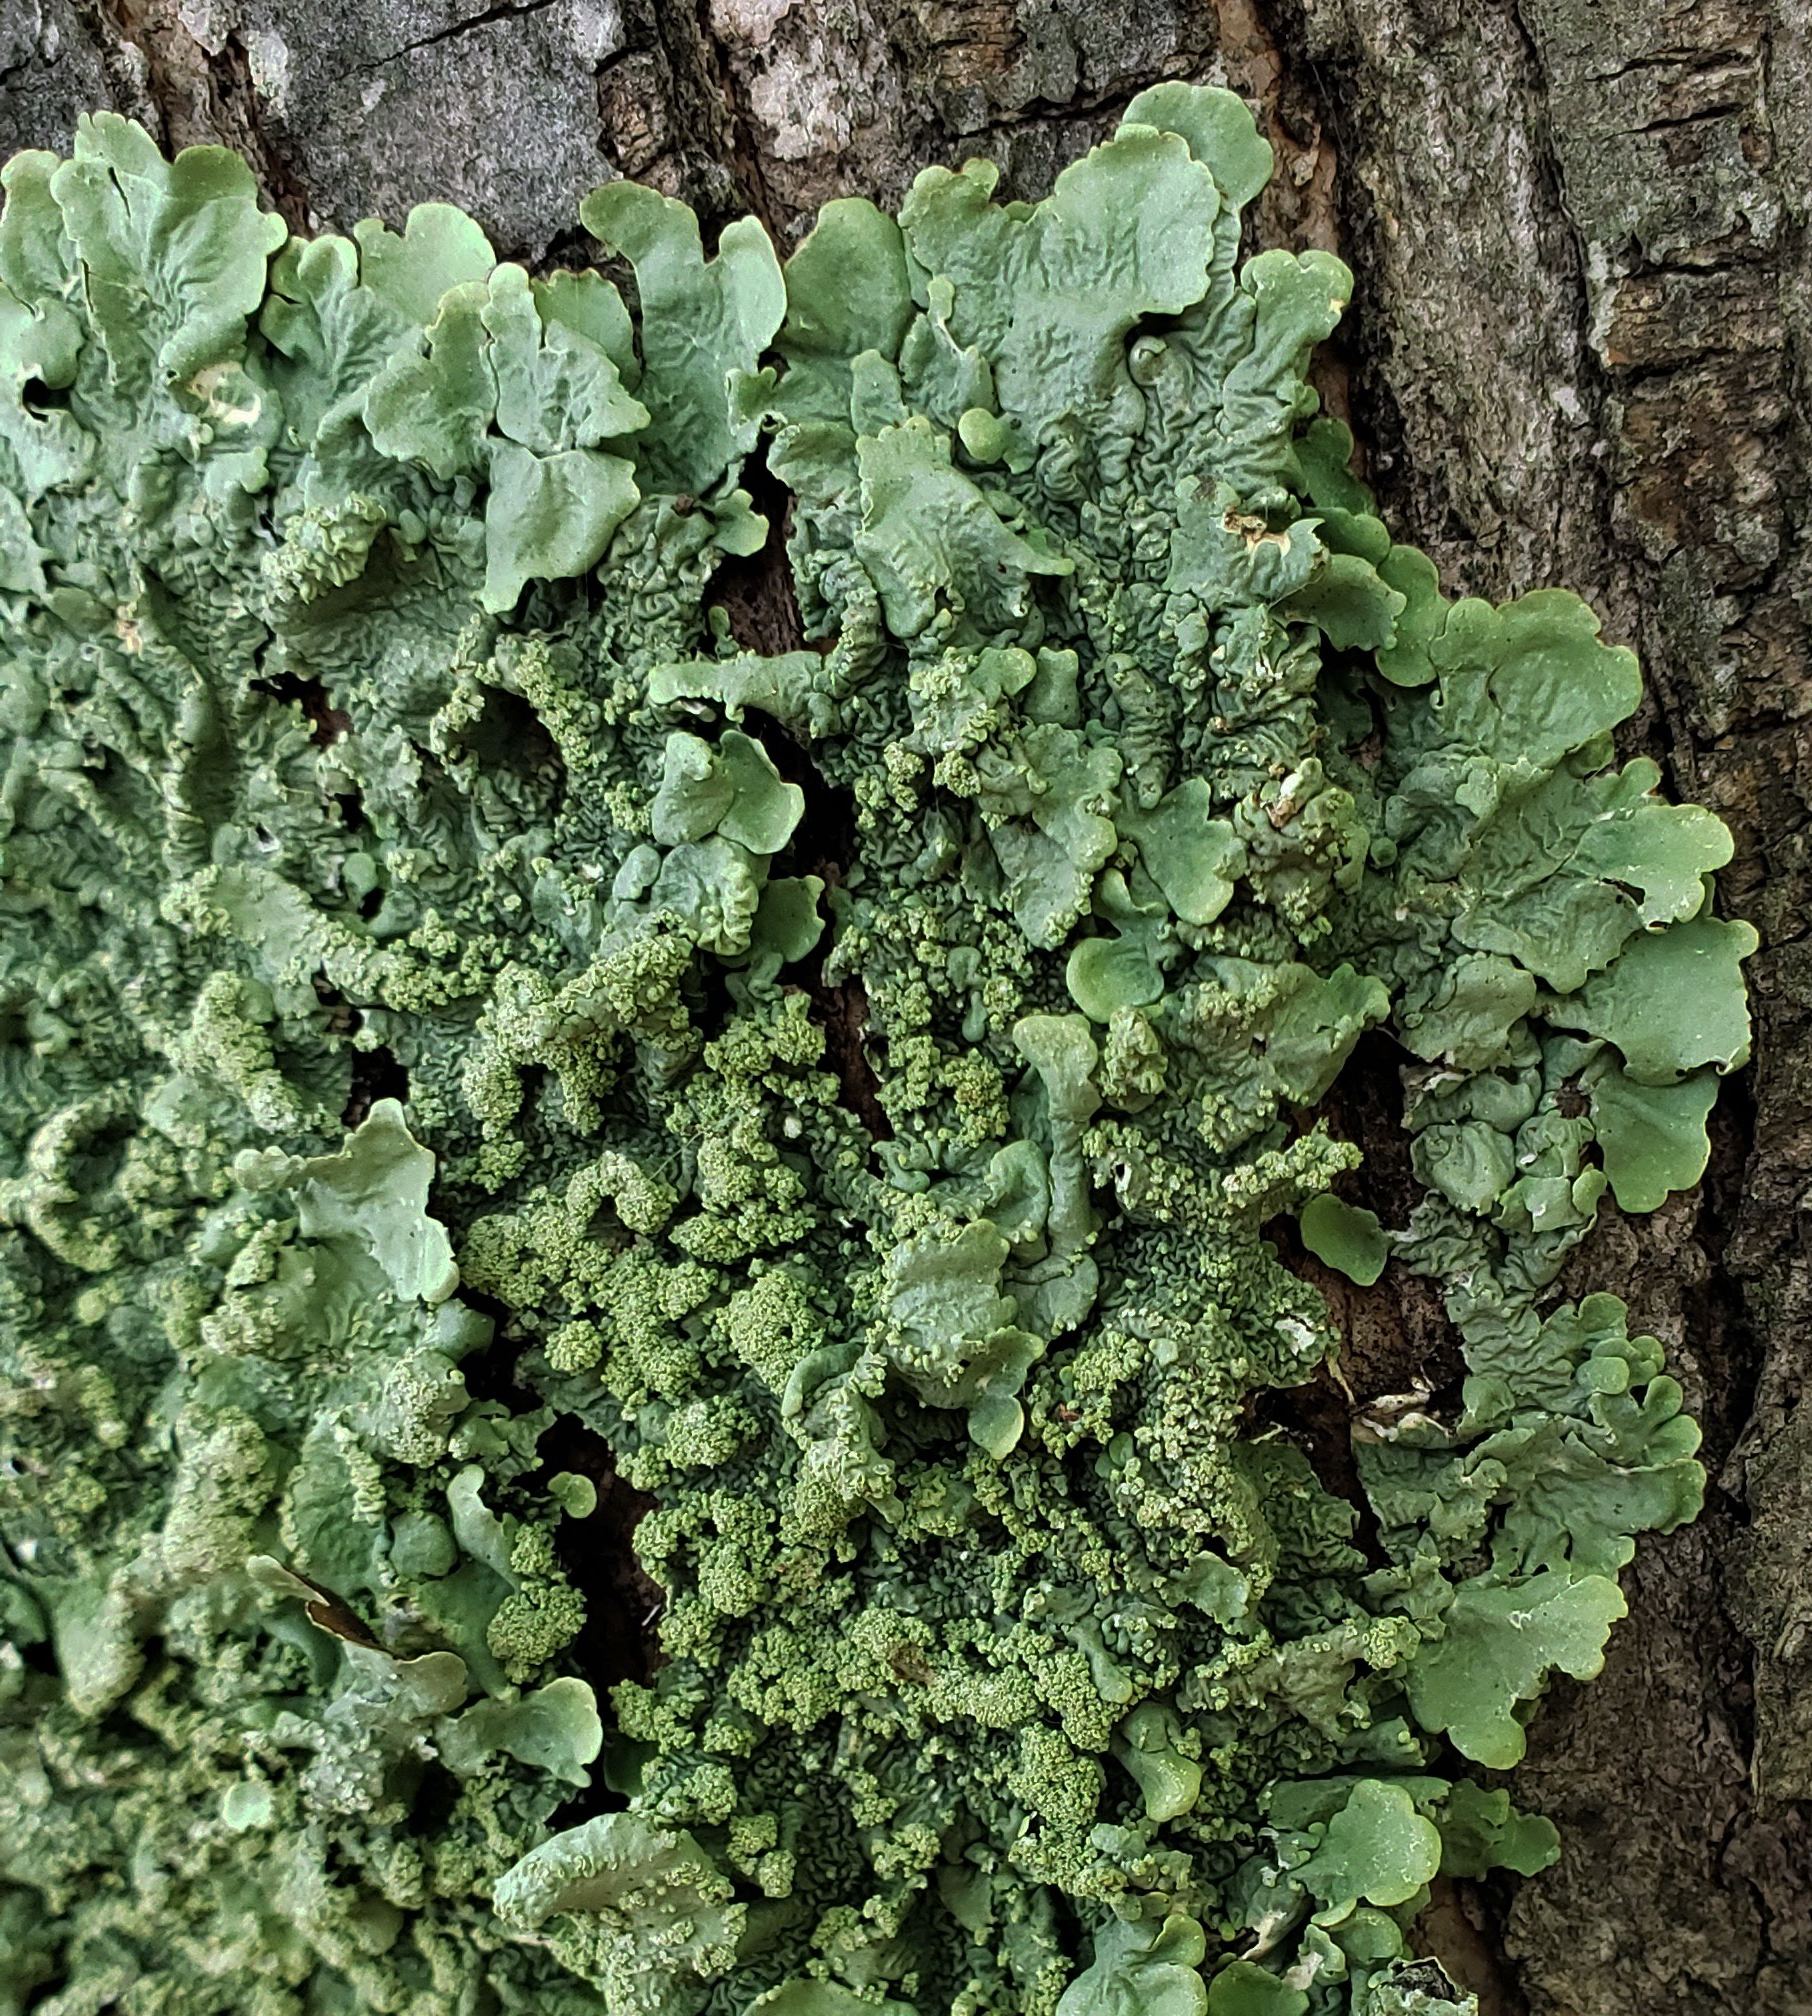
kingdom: Fungi
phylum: Ascomycota
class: Lecanoromycetes
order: Lecanorales
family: Parmeliaceae
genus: Flavoparmelia
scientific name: Flavoparmelia caperata
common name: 40-mile per hour lichen
